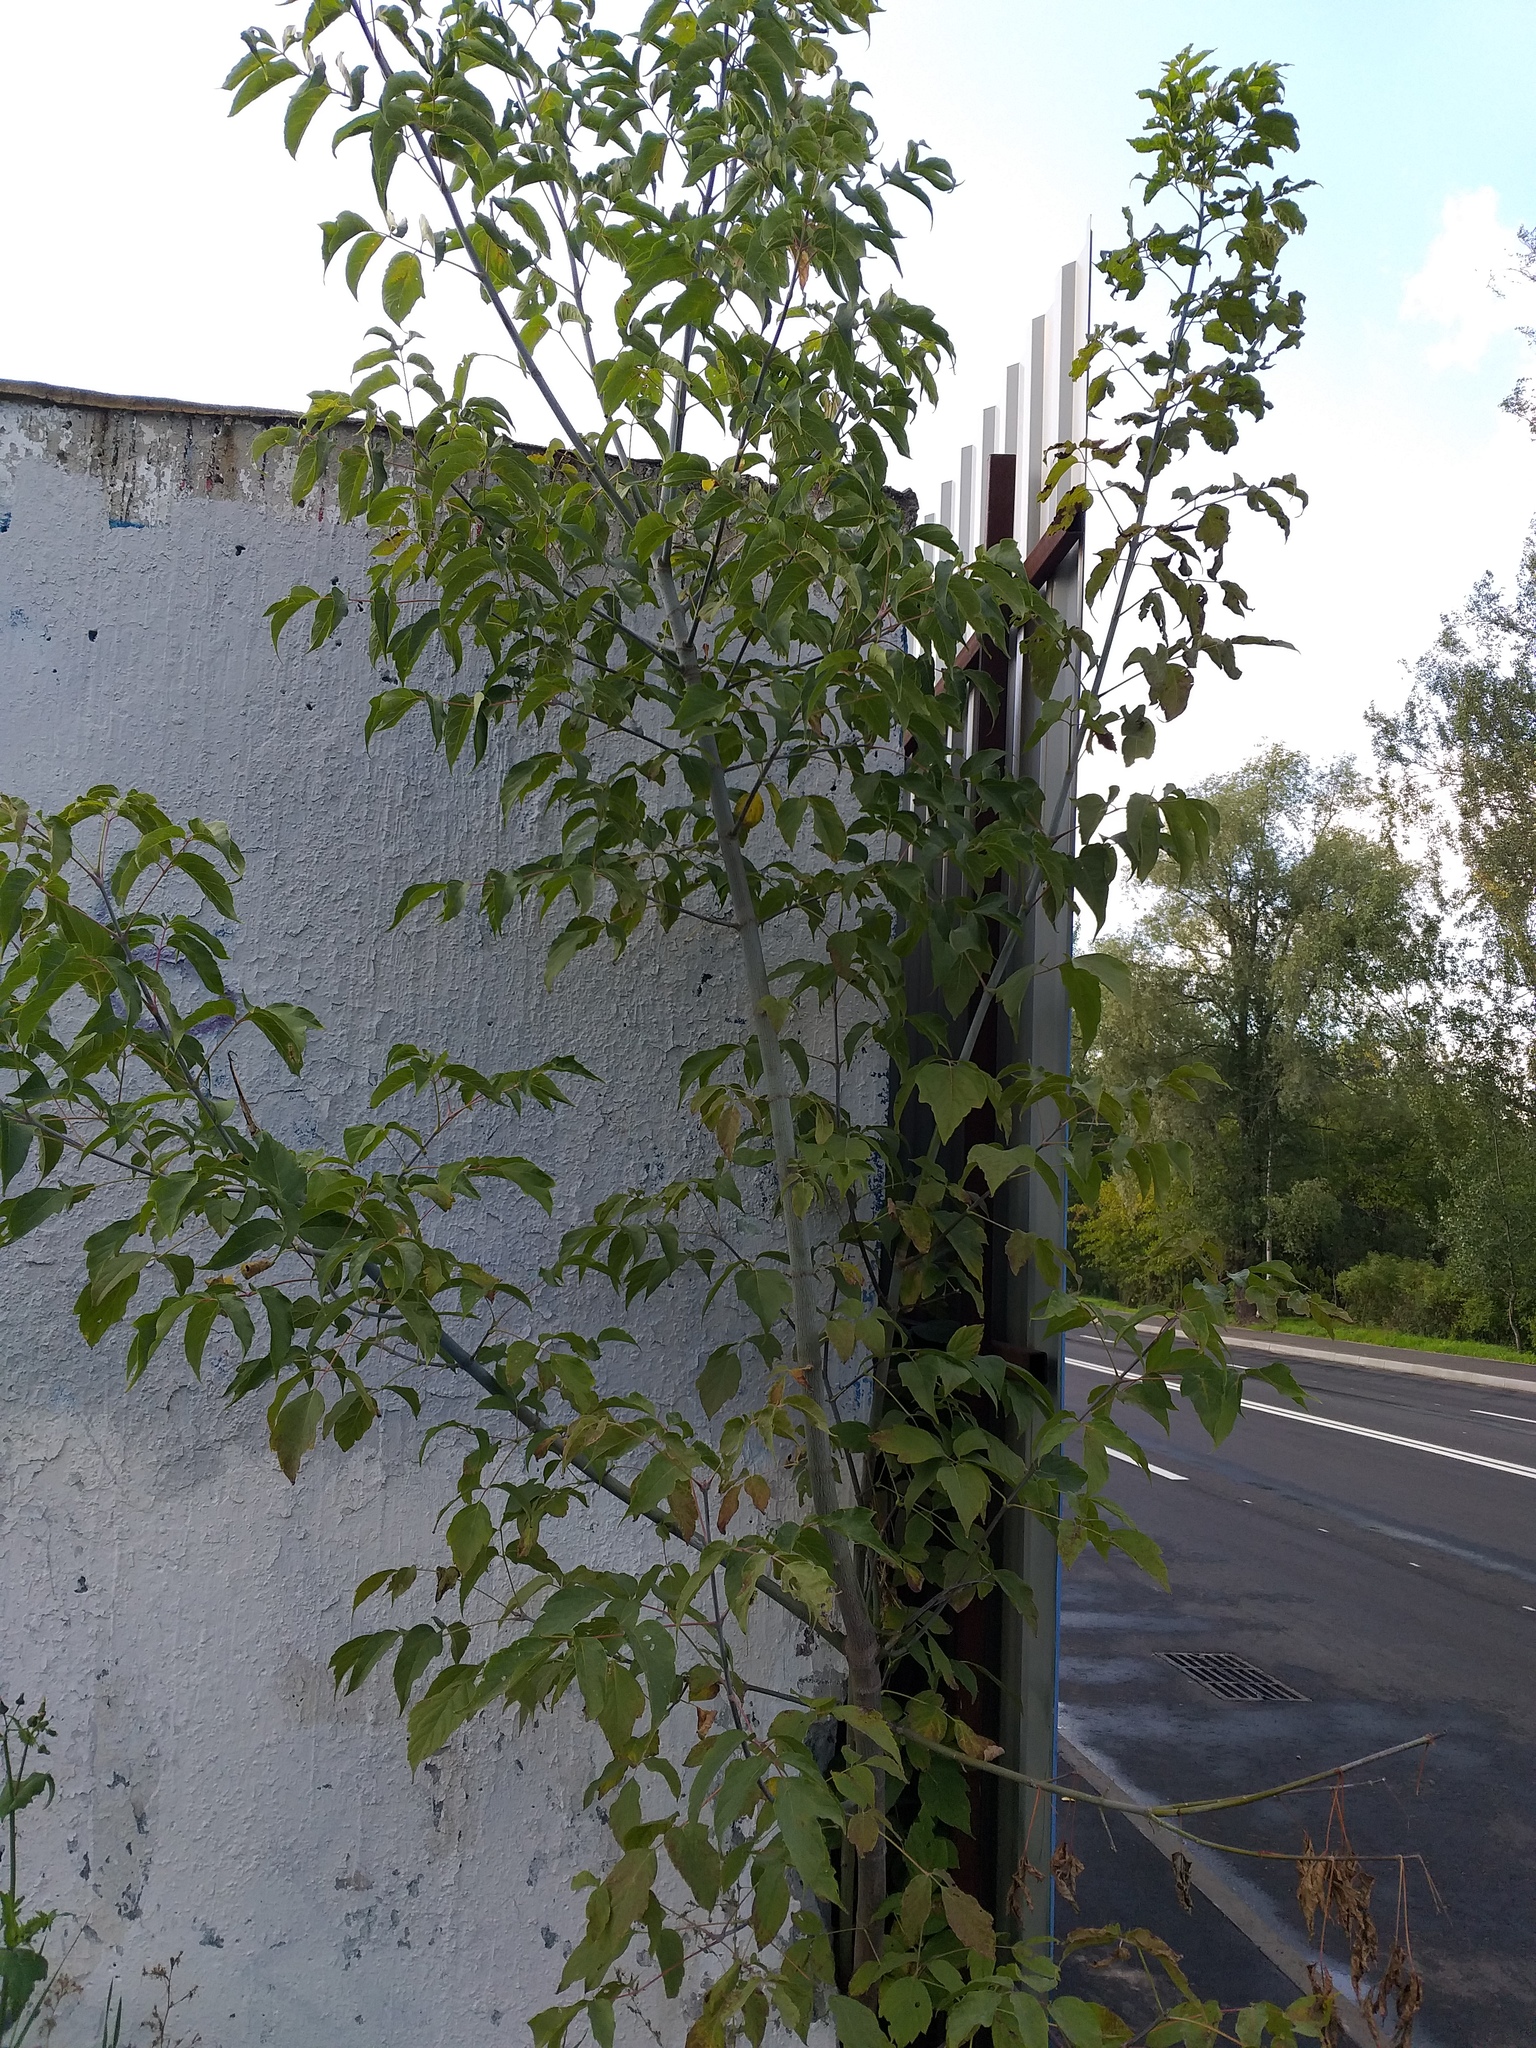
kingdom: Plantae
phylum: Tracheophyta
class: Magnoliopsida
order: Sapindales
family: Sapindaceae
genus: Acer
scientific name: Acer negundo
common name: Ashleaf maple
